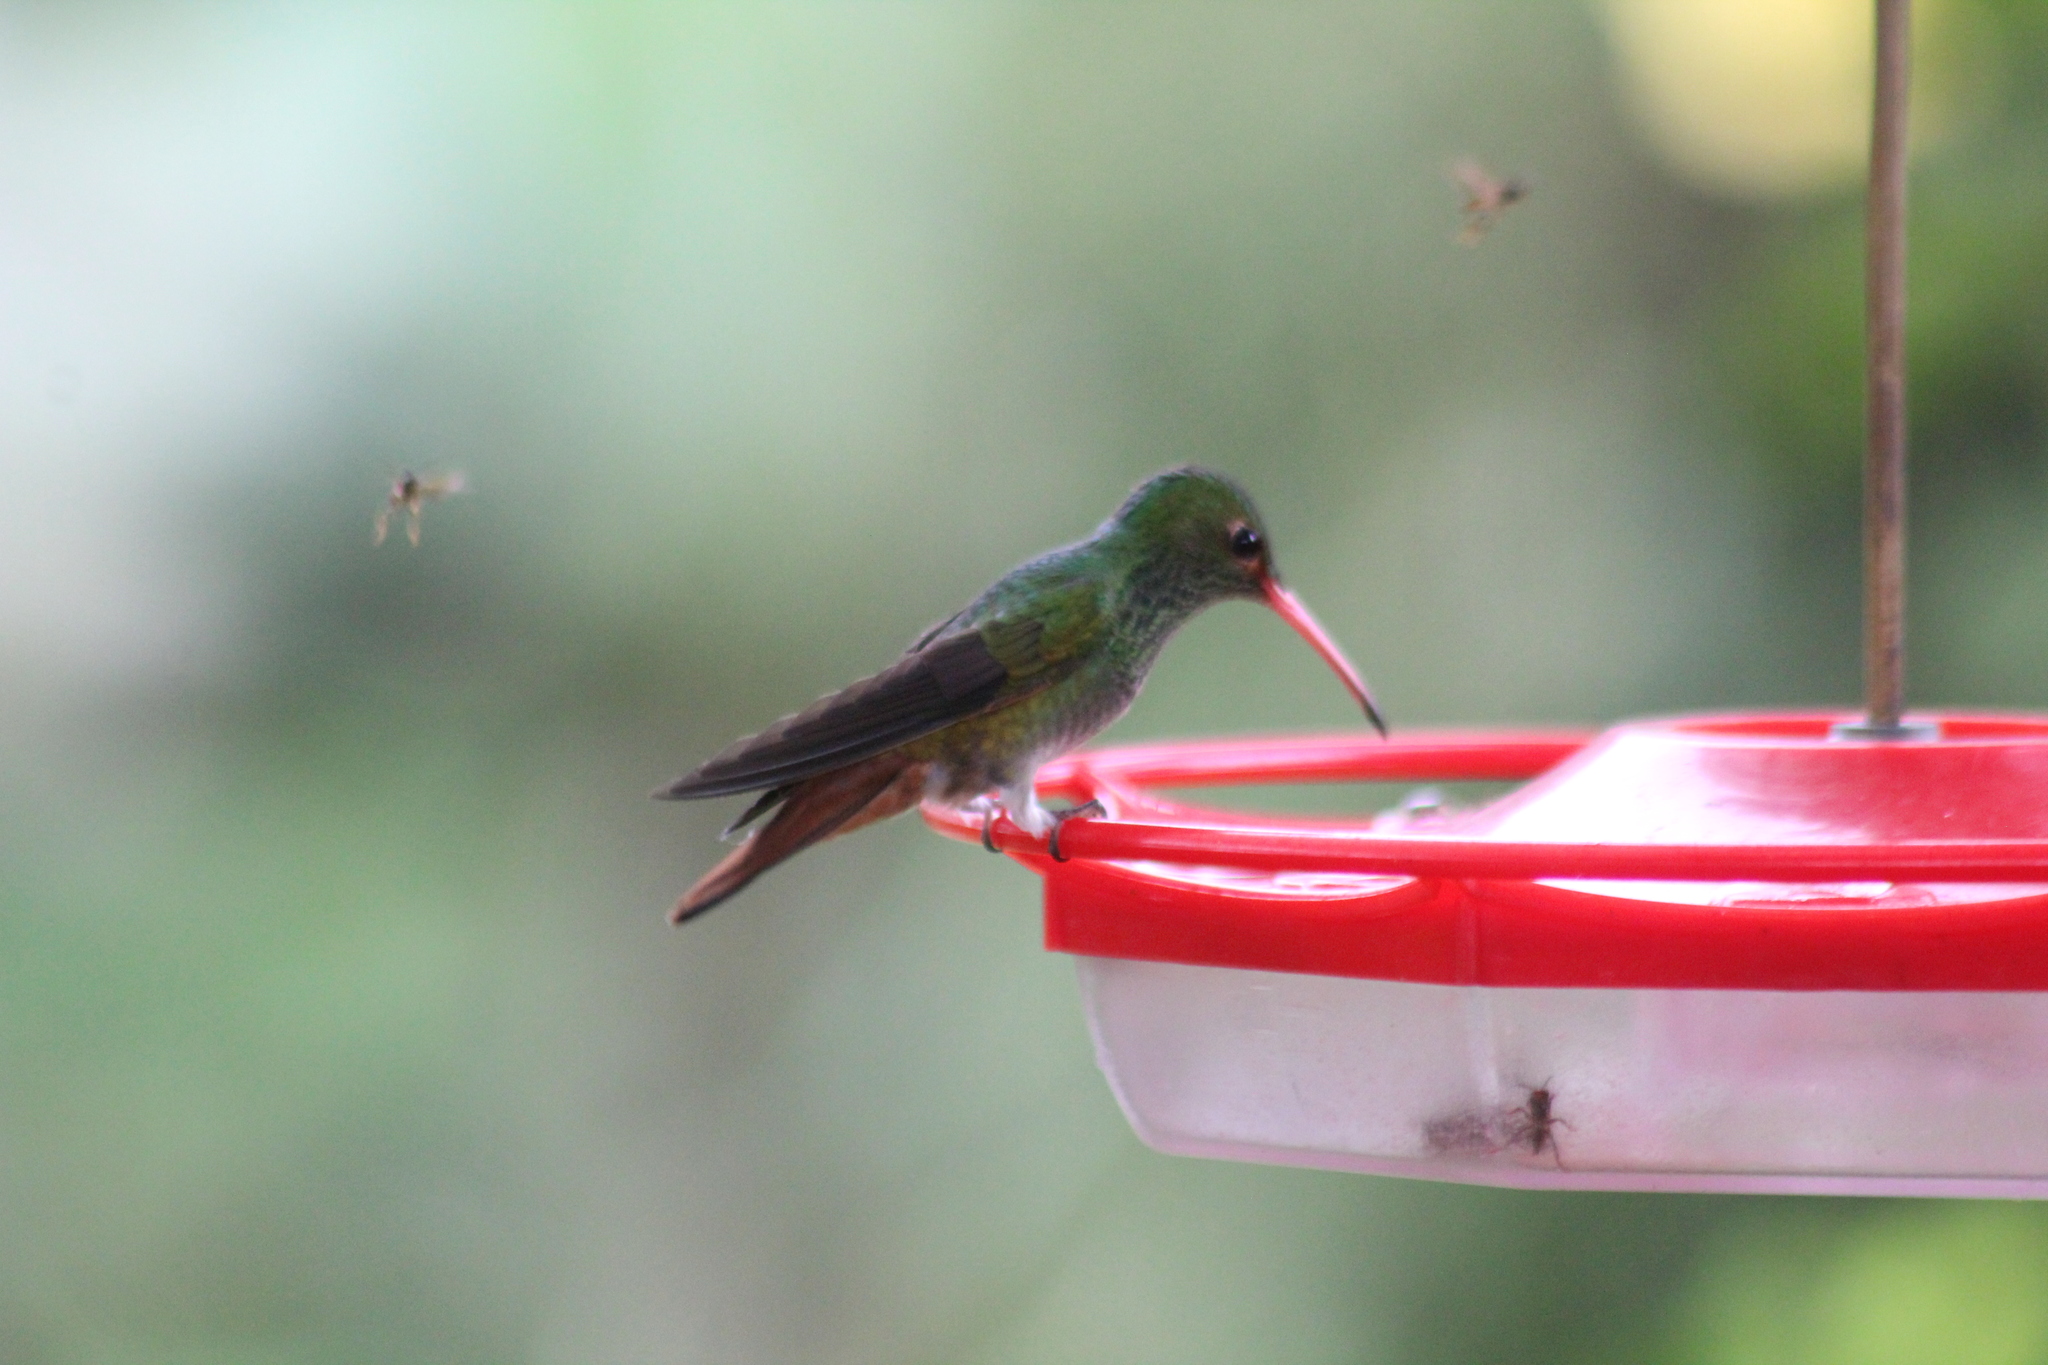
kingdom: Animalia
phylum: Chordata
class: Aves
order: Apodiformes
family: Trochilidae
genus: Amazilia
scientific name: Amazilia tzacatl
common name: Rufous-tailed hummingbird
